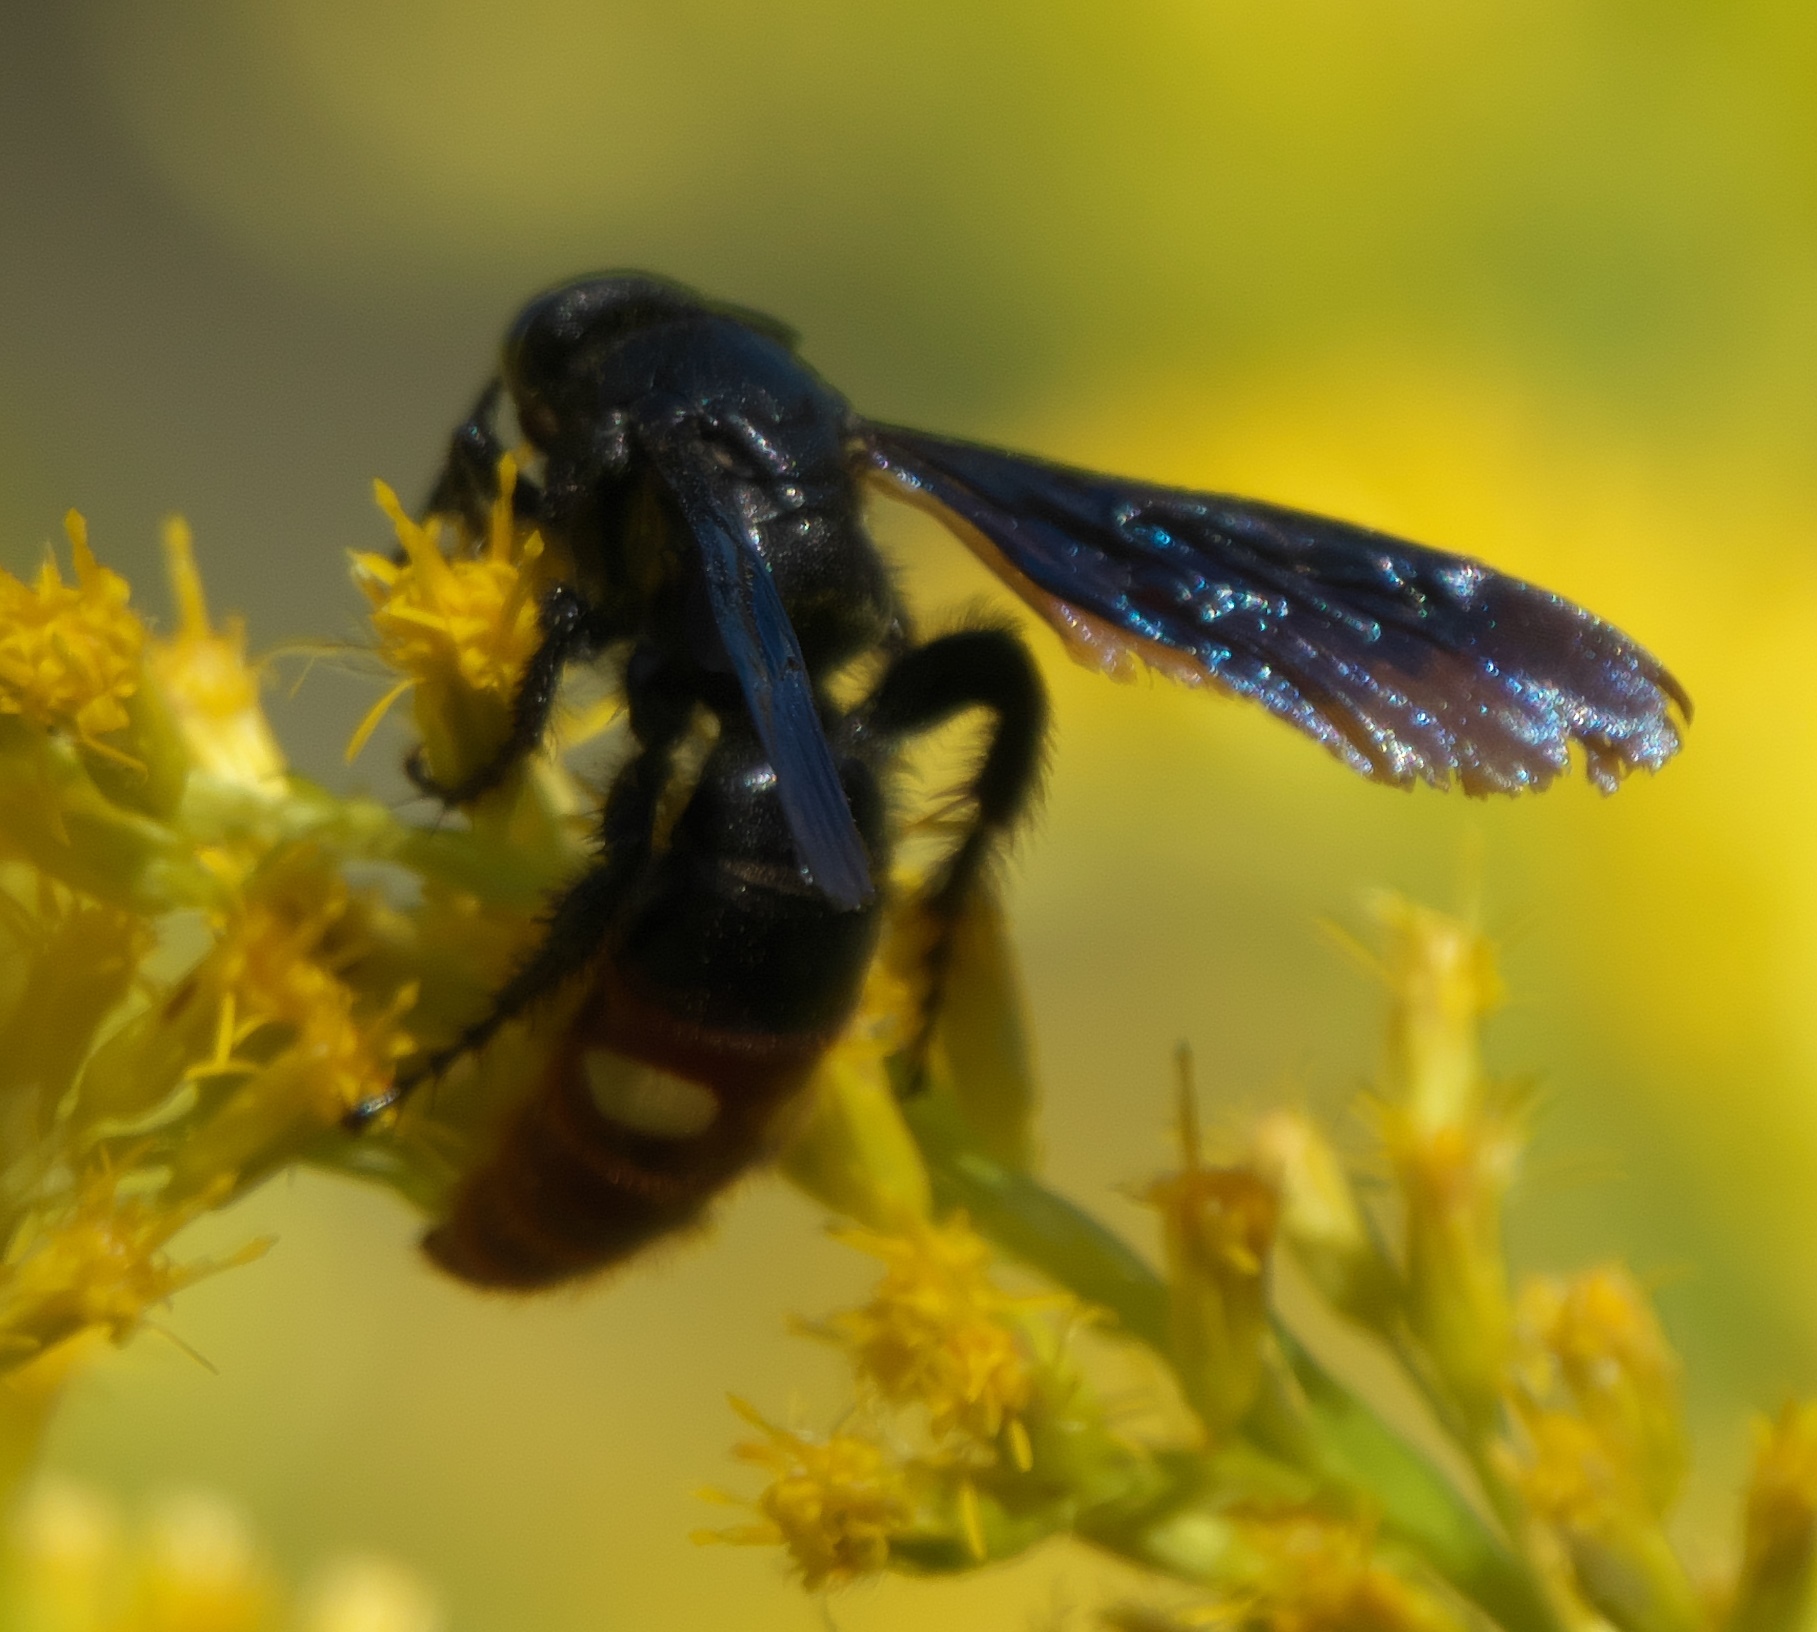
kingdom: Animalia
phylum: Arthropoda
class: Insecta
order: Hymenoptera
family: Scoliidae
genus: Scolia
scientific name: Scolia dubia
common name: Blue-winged scoliid wasp
